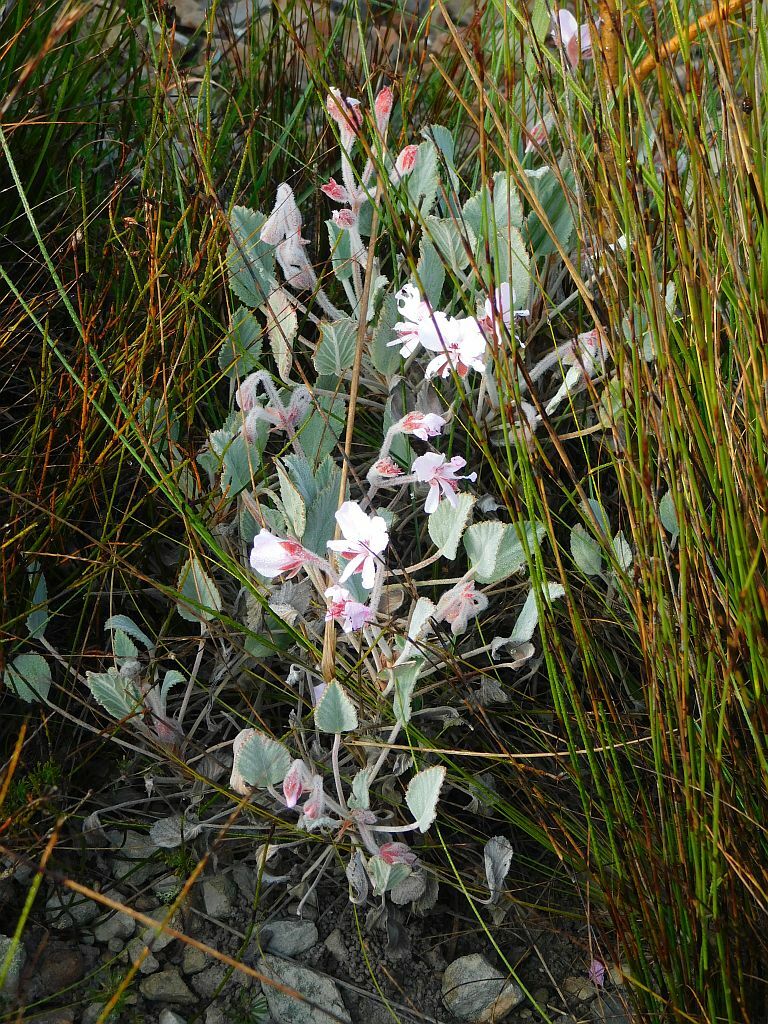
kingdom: Plantae
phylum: Tracheophyta
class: Magnoliopsida
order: Geraniales
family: Geraniaceae
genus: Pelargonium
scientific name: Pelargonium ovale
